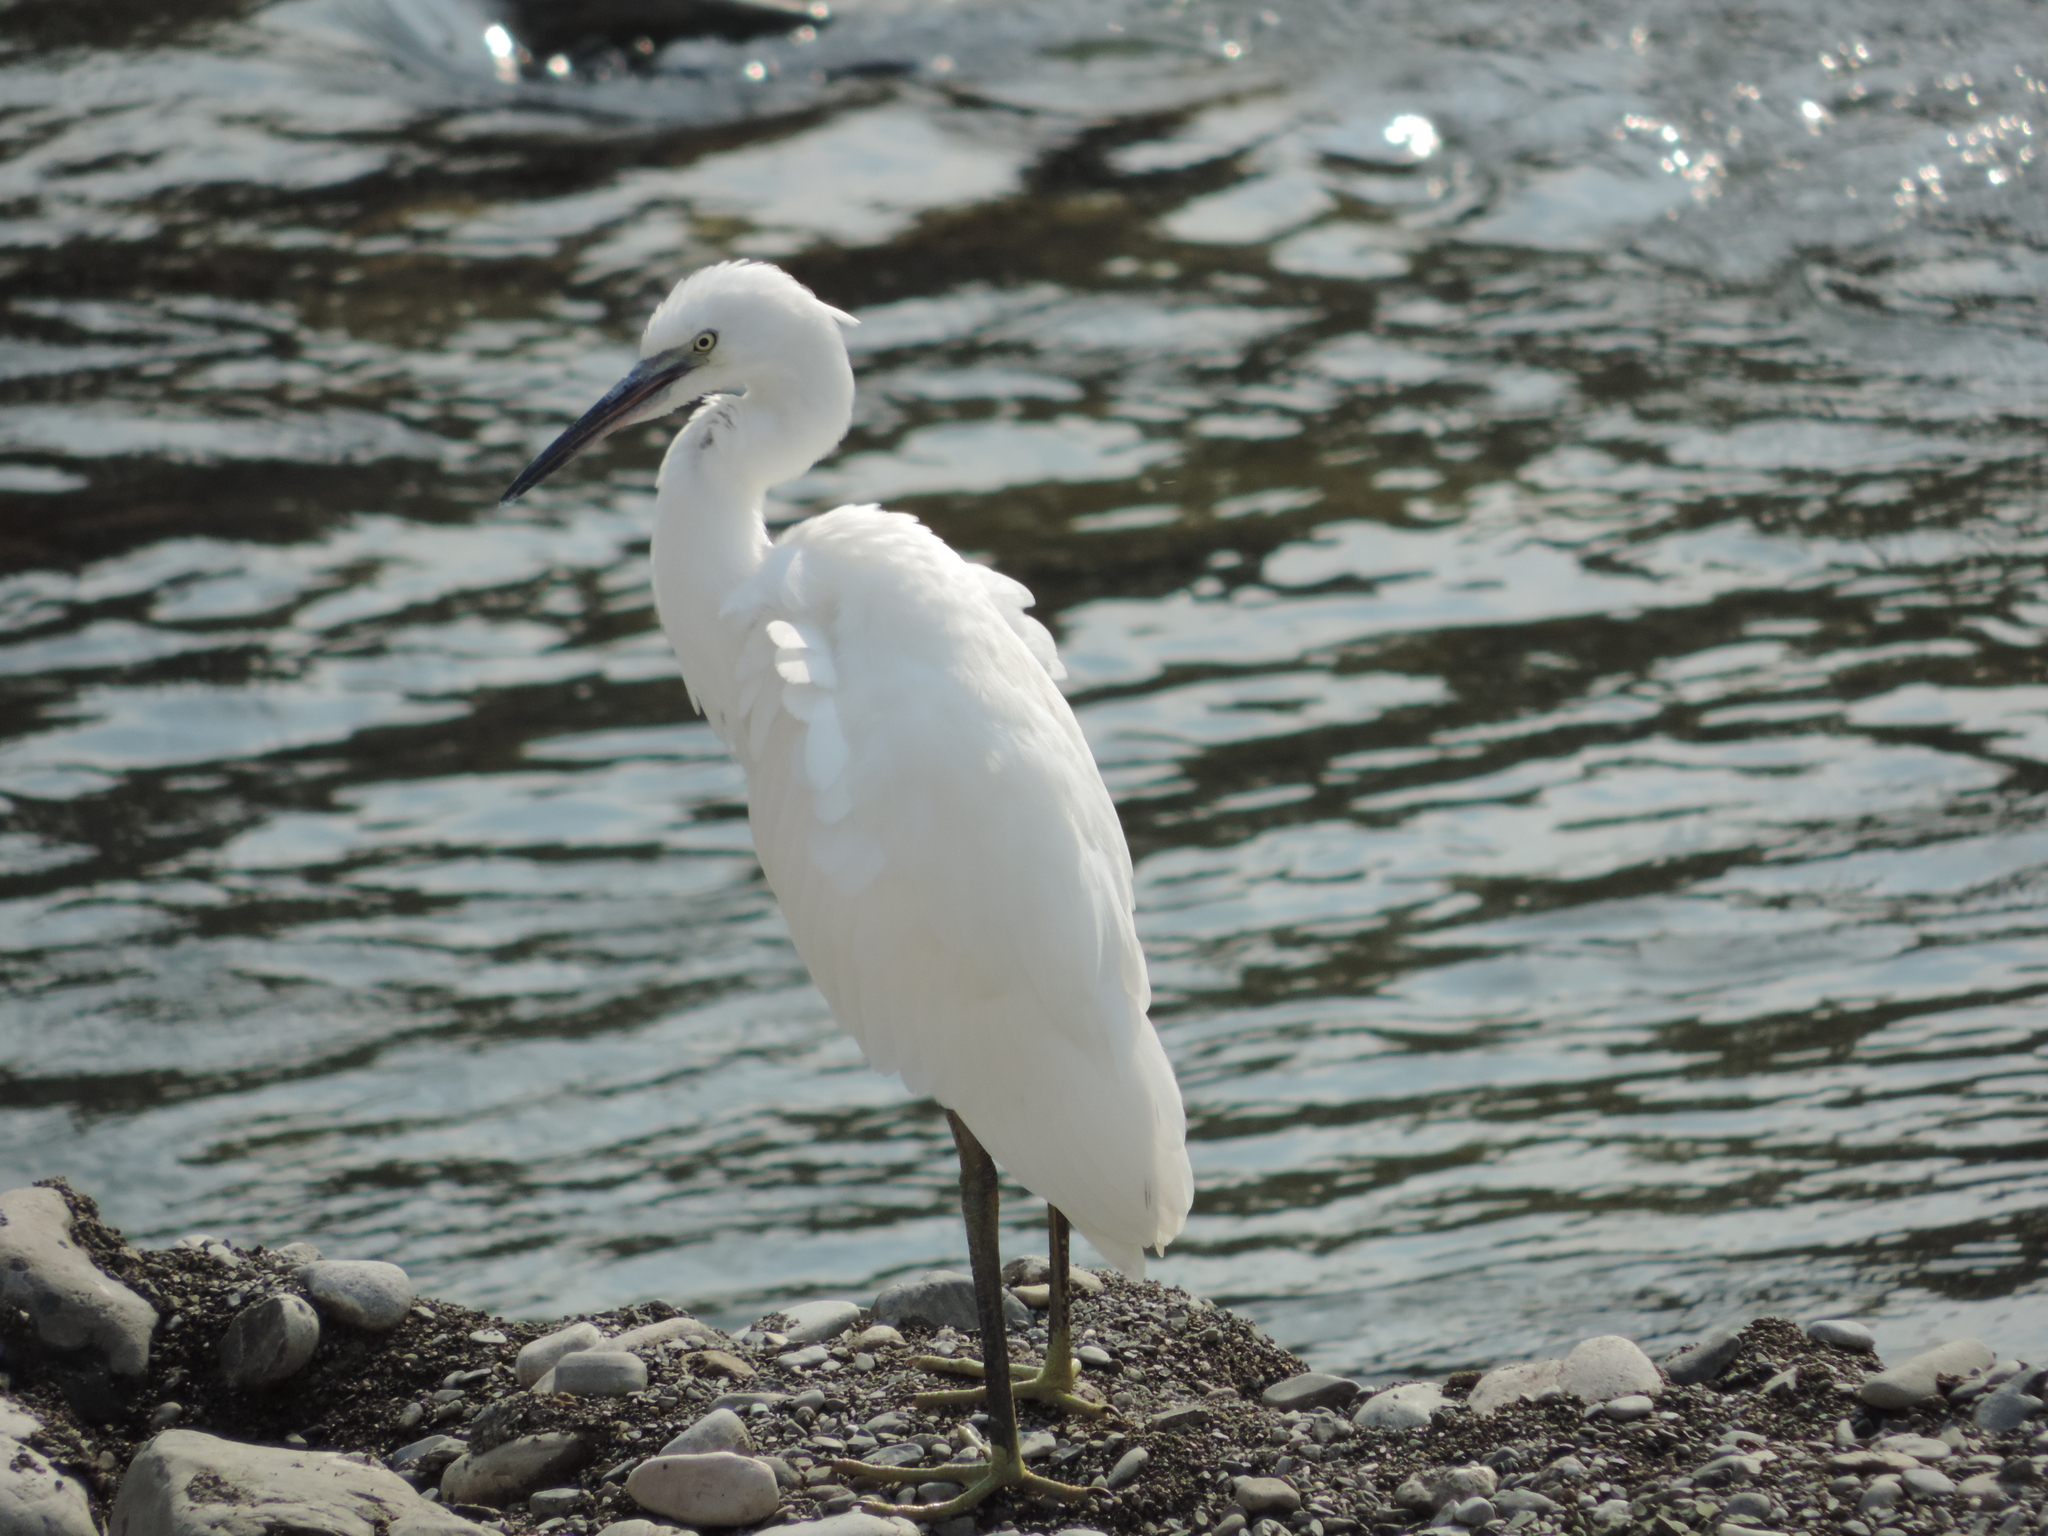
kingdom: Animalia
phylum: Chordata
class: Aves
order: Pelecaniformes
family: Ardeidae
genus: Egretta
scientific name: Egretta garzetta
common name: Little egret
